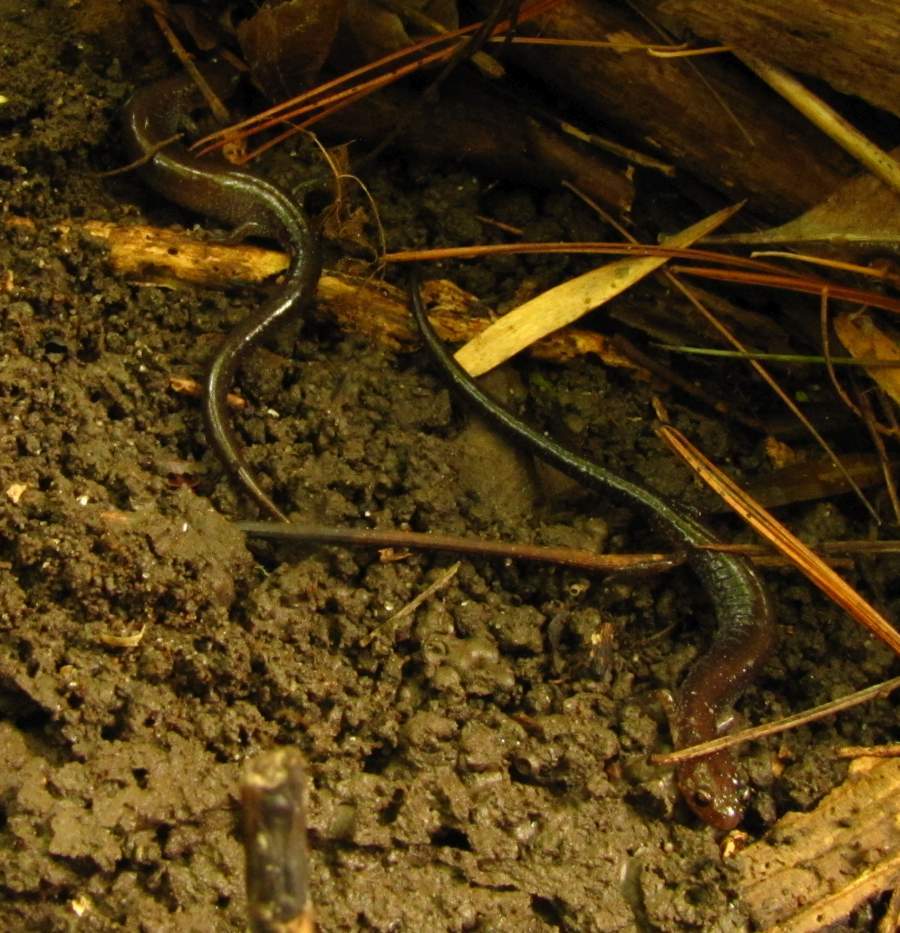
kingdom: Animalia
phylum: Chordata
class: Amphibia
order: Caudata
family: Plethodontidae
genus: Plethodon
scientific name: Plethodon cinereus
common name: Redback salamander
